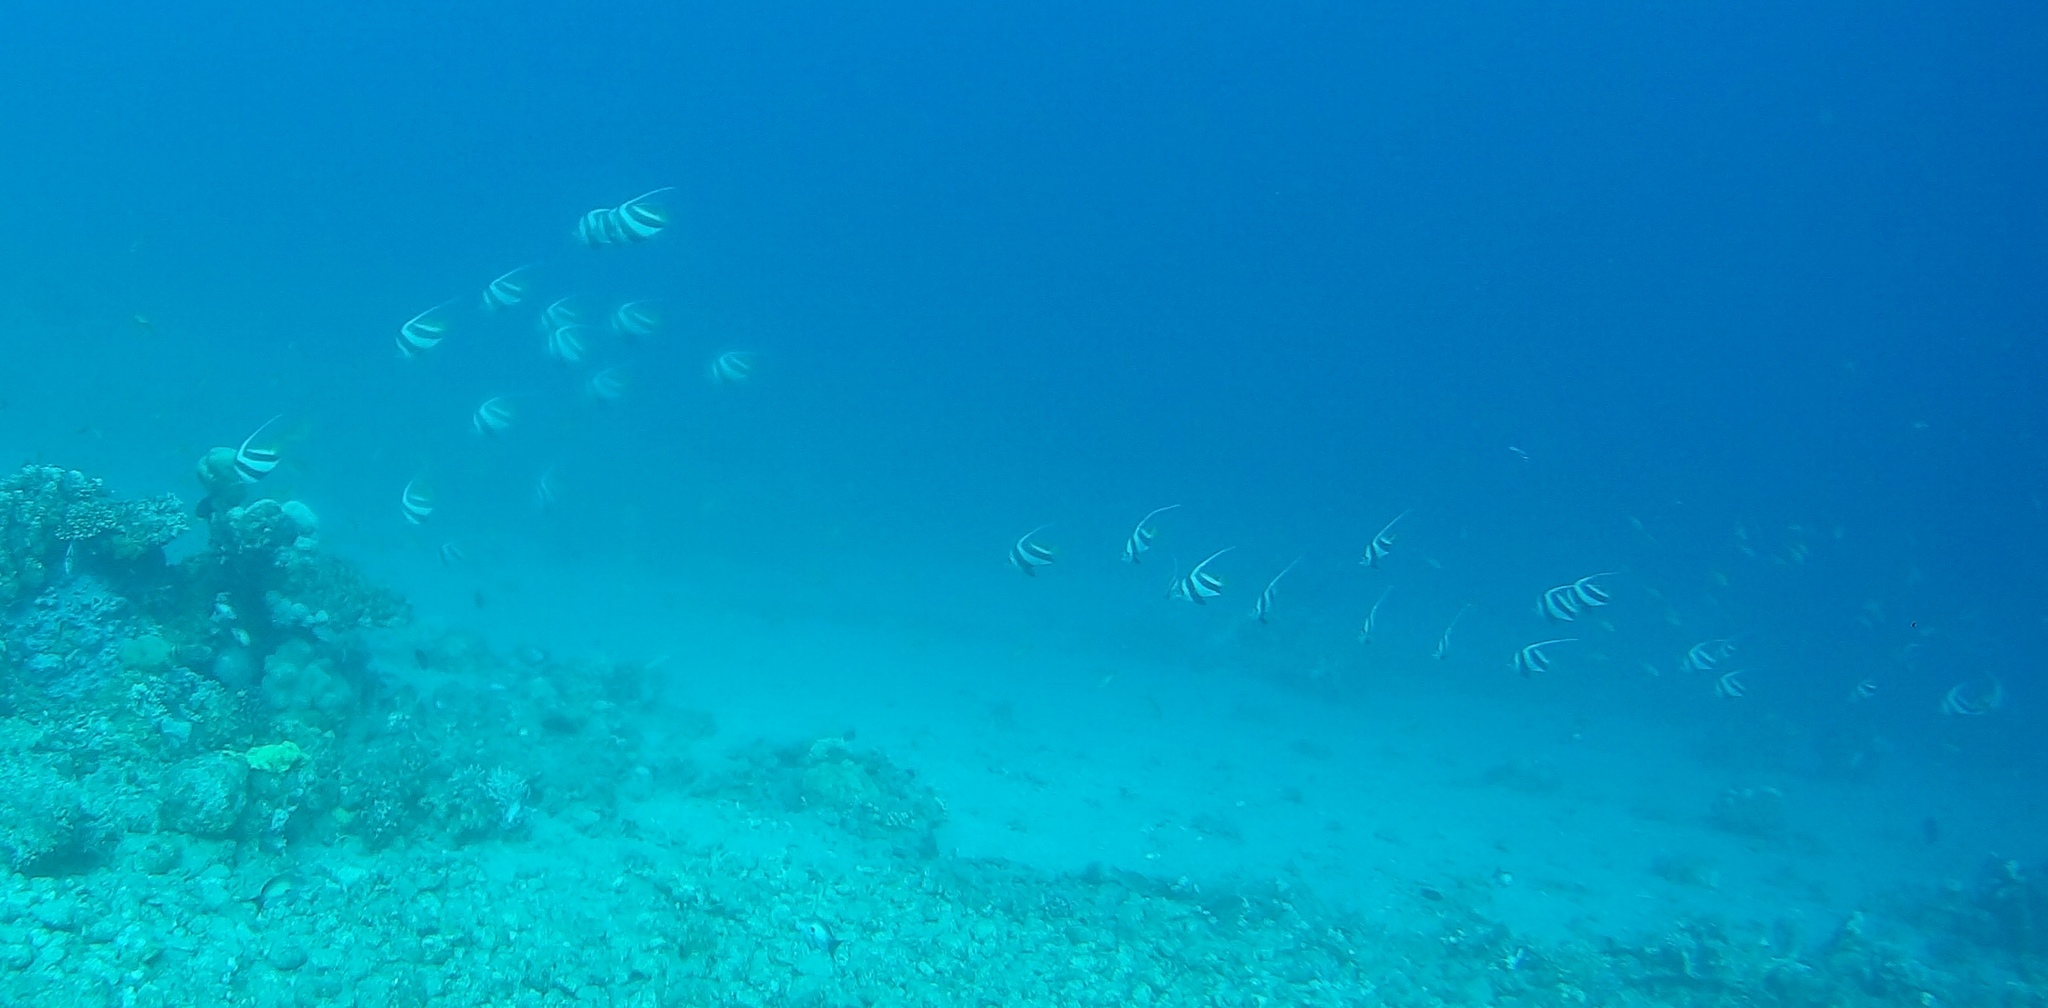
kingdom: Animalia
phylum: Chordata
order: Perciformes
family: Chaetodontidae
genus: Heniochus
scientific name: Heniochus diphreutes
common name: Pennantfish
